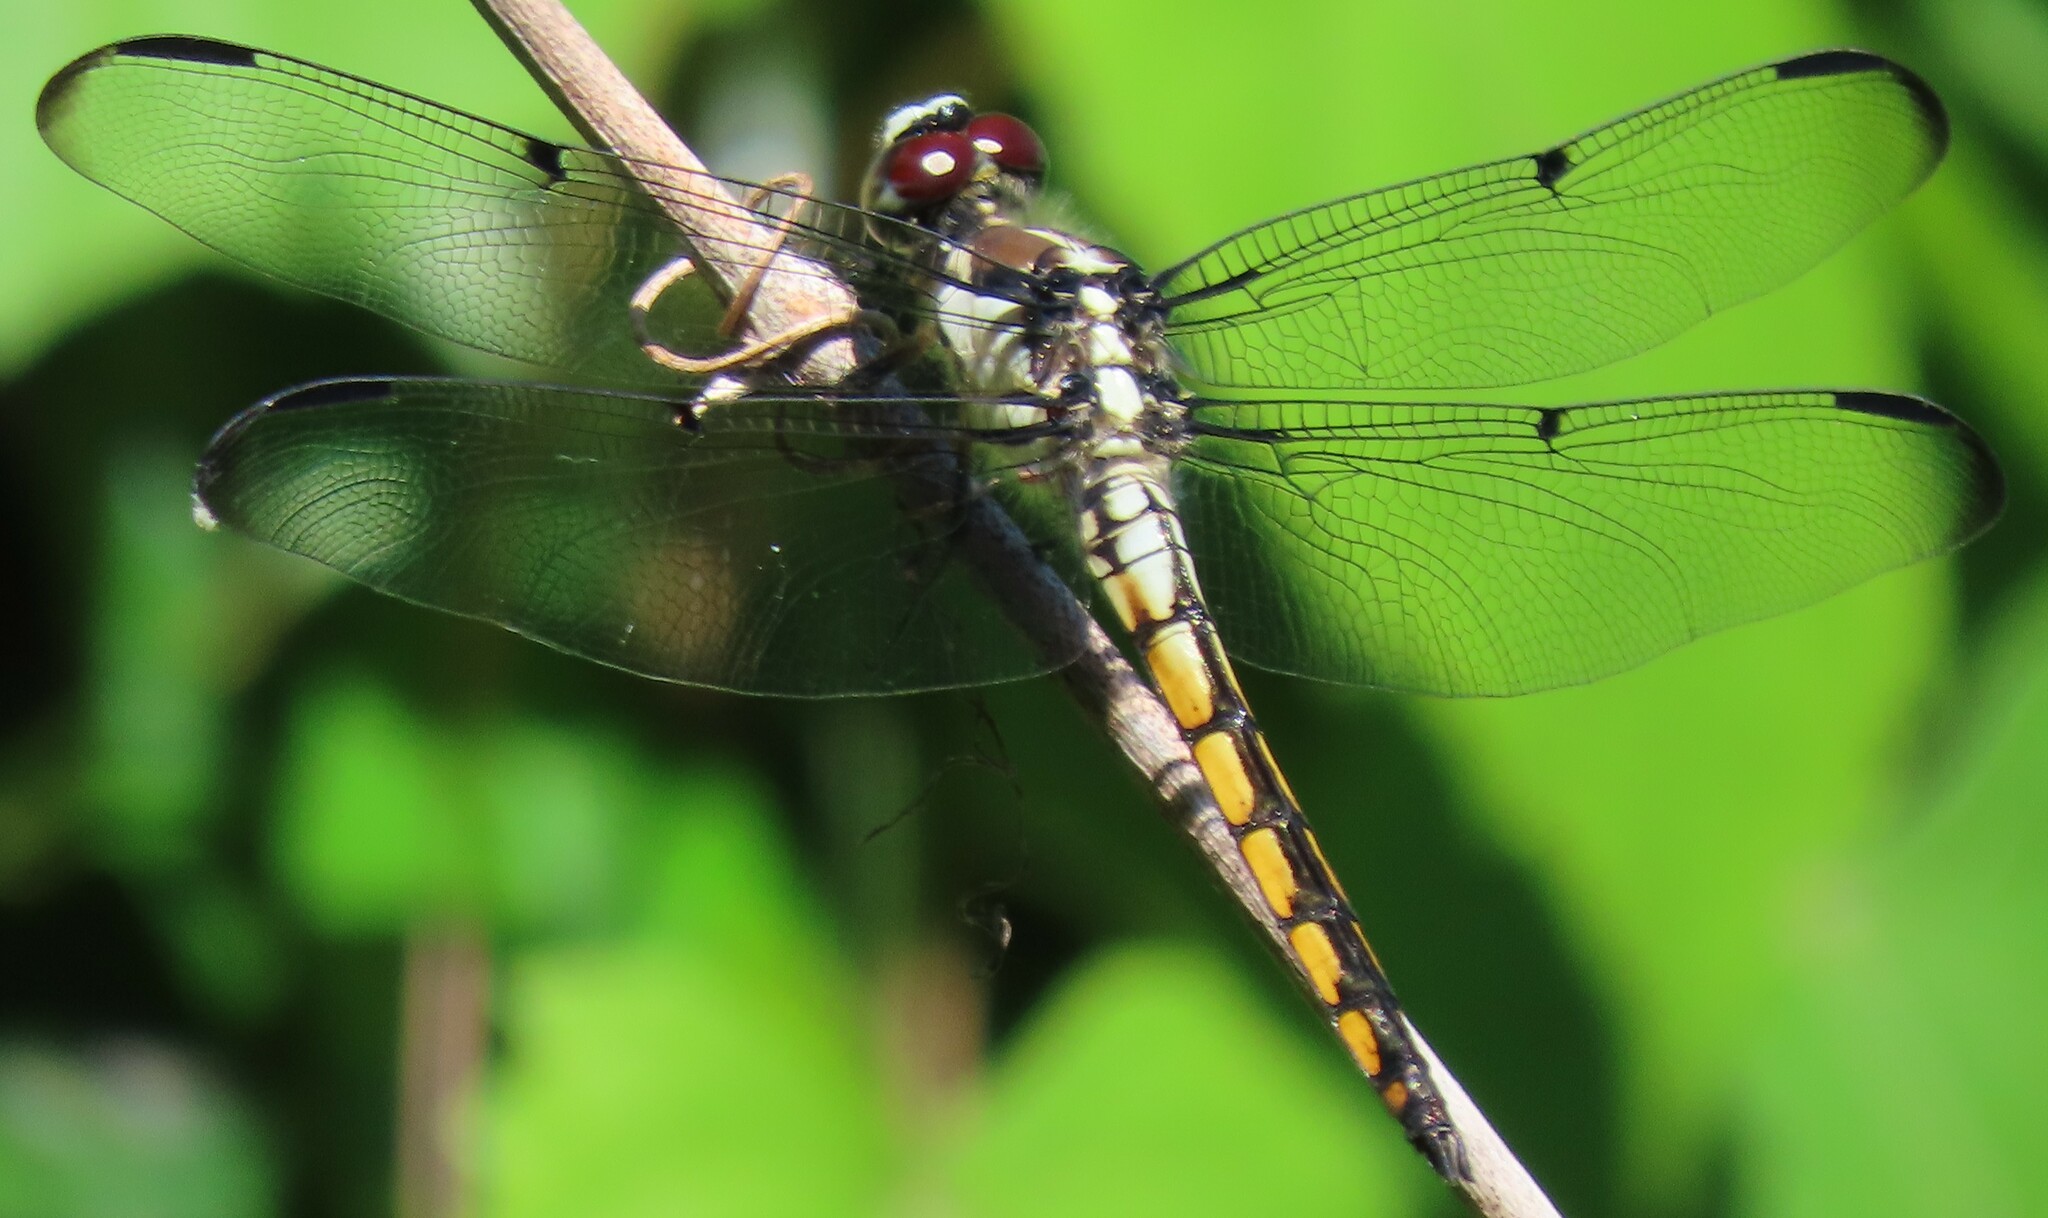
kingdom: Animalia
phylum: Arthropoda
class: Insecta
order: Odonata
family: Libellulidae
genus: Libellula
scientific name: Libellula vibrans
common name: Great blue skimmer
